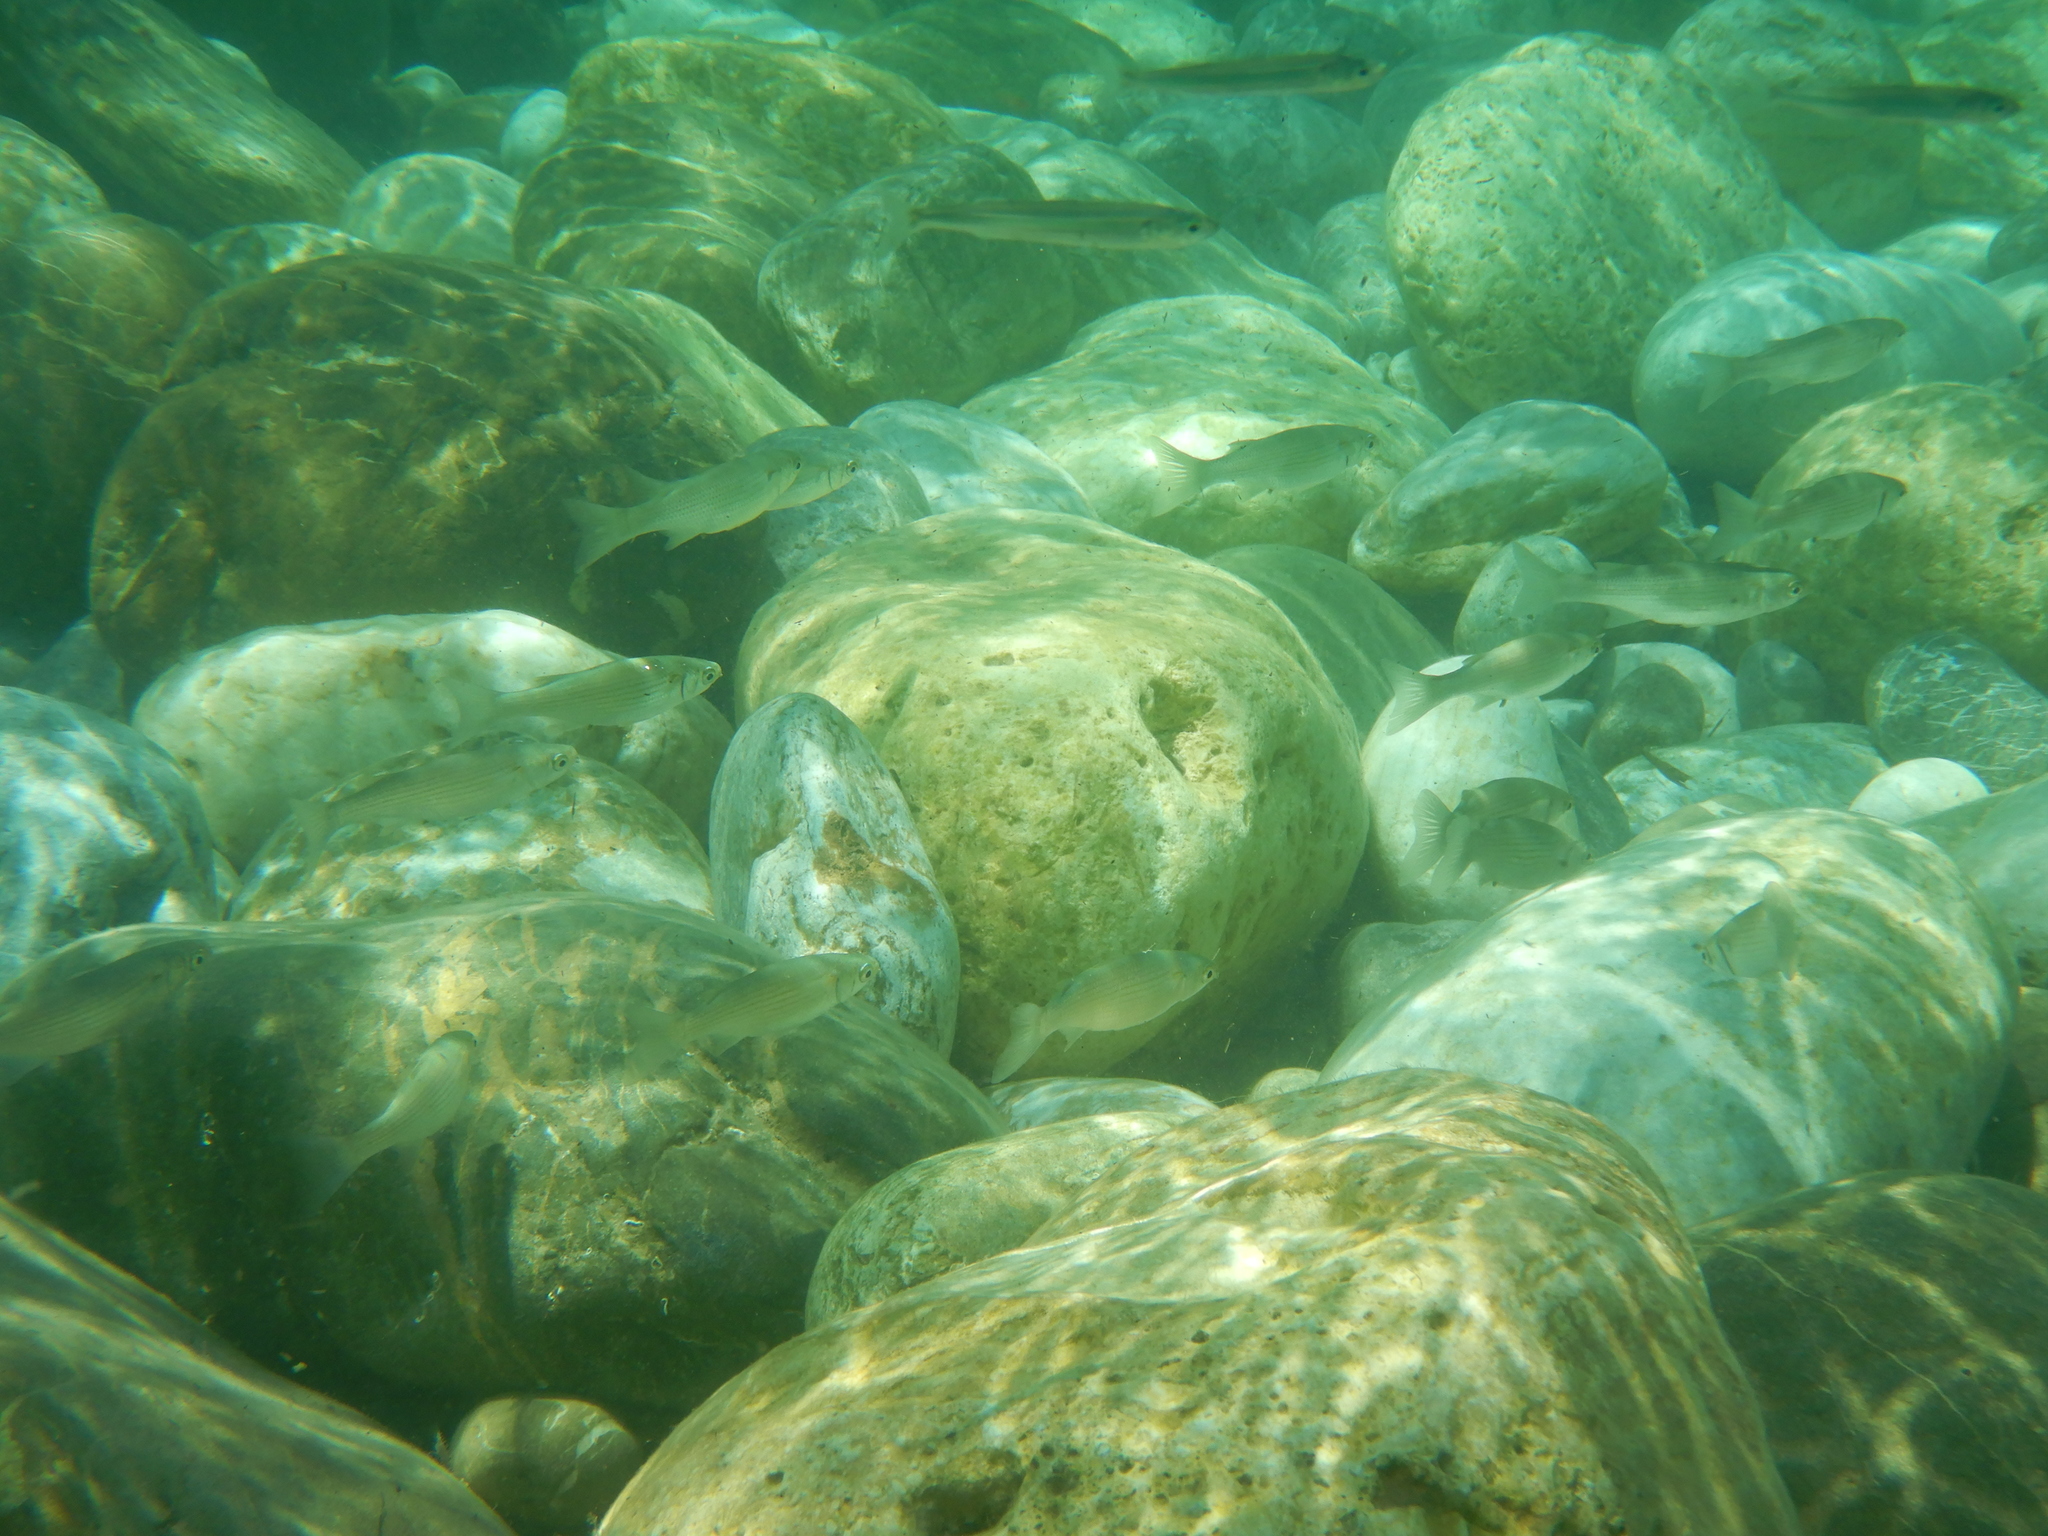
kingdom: Animalia
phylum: Chordata
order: Mugiliformes
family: Mugilidae
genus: Oedalechilus
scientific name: Oedalechilus labeo
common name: Boxlip mullet
